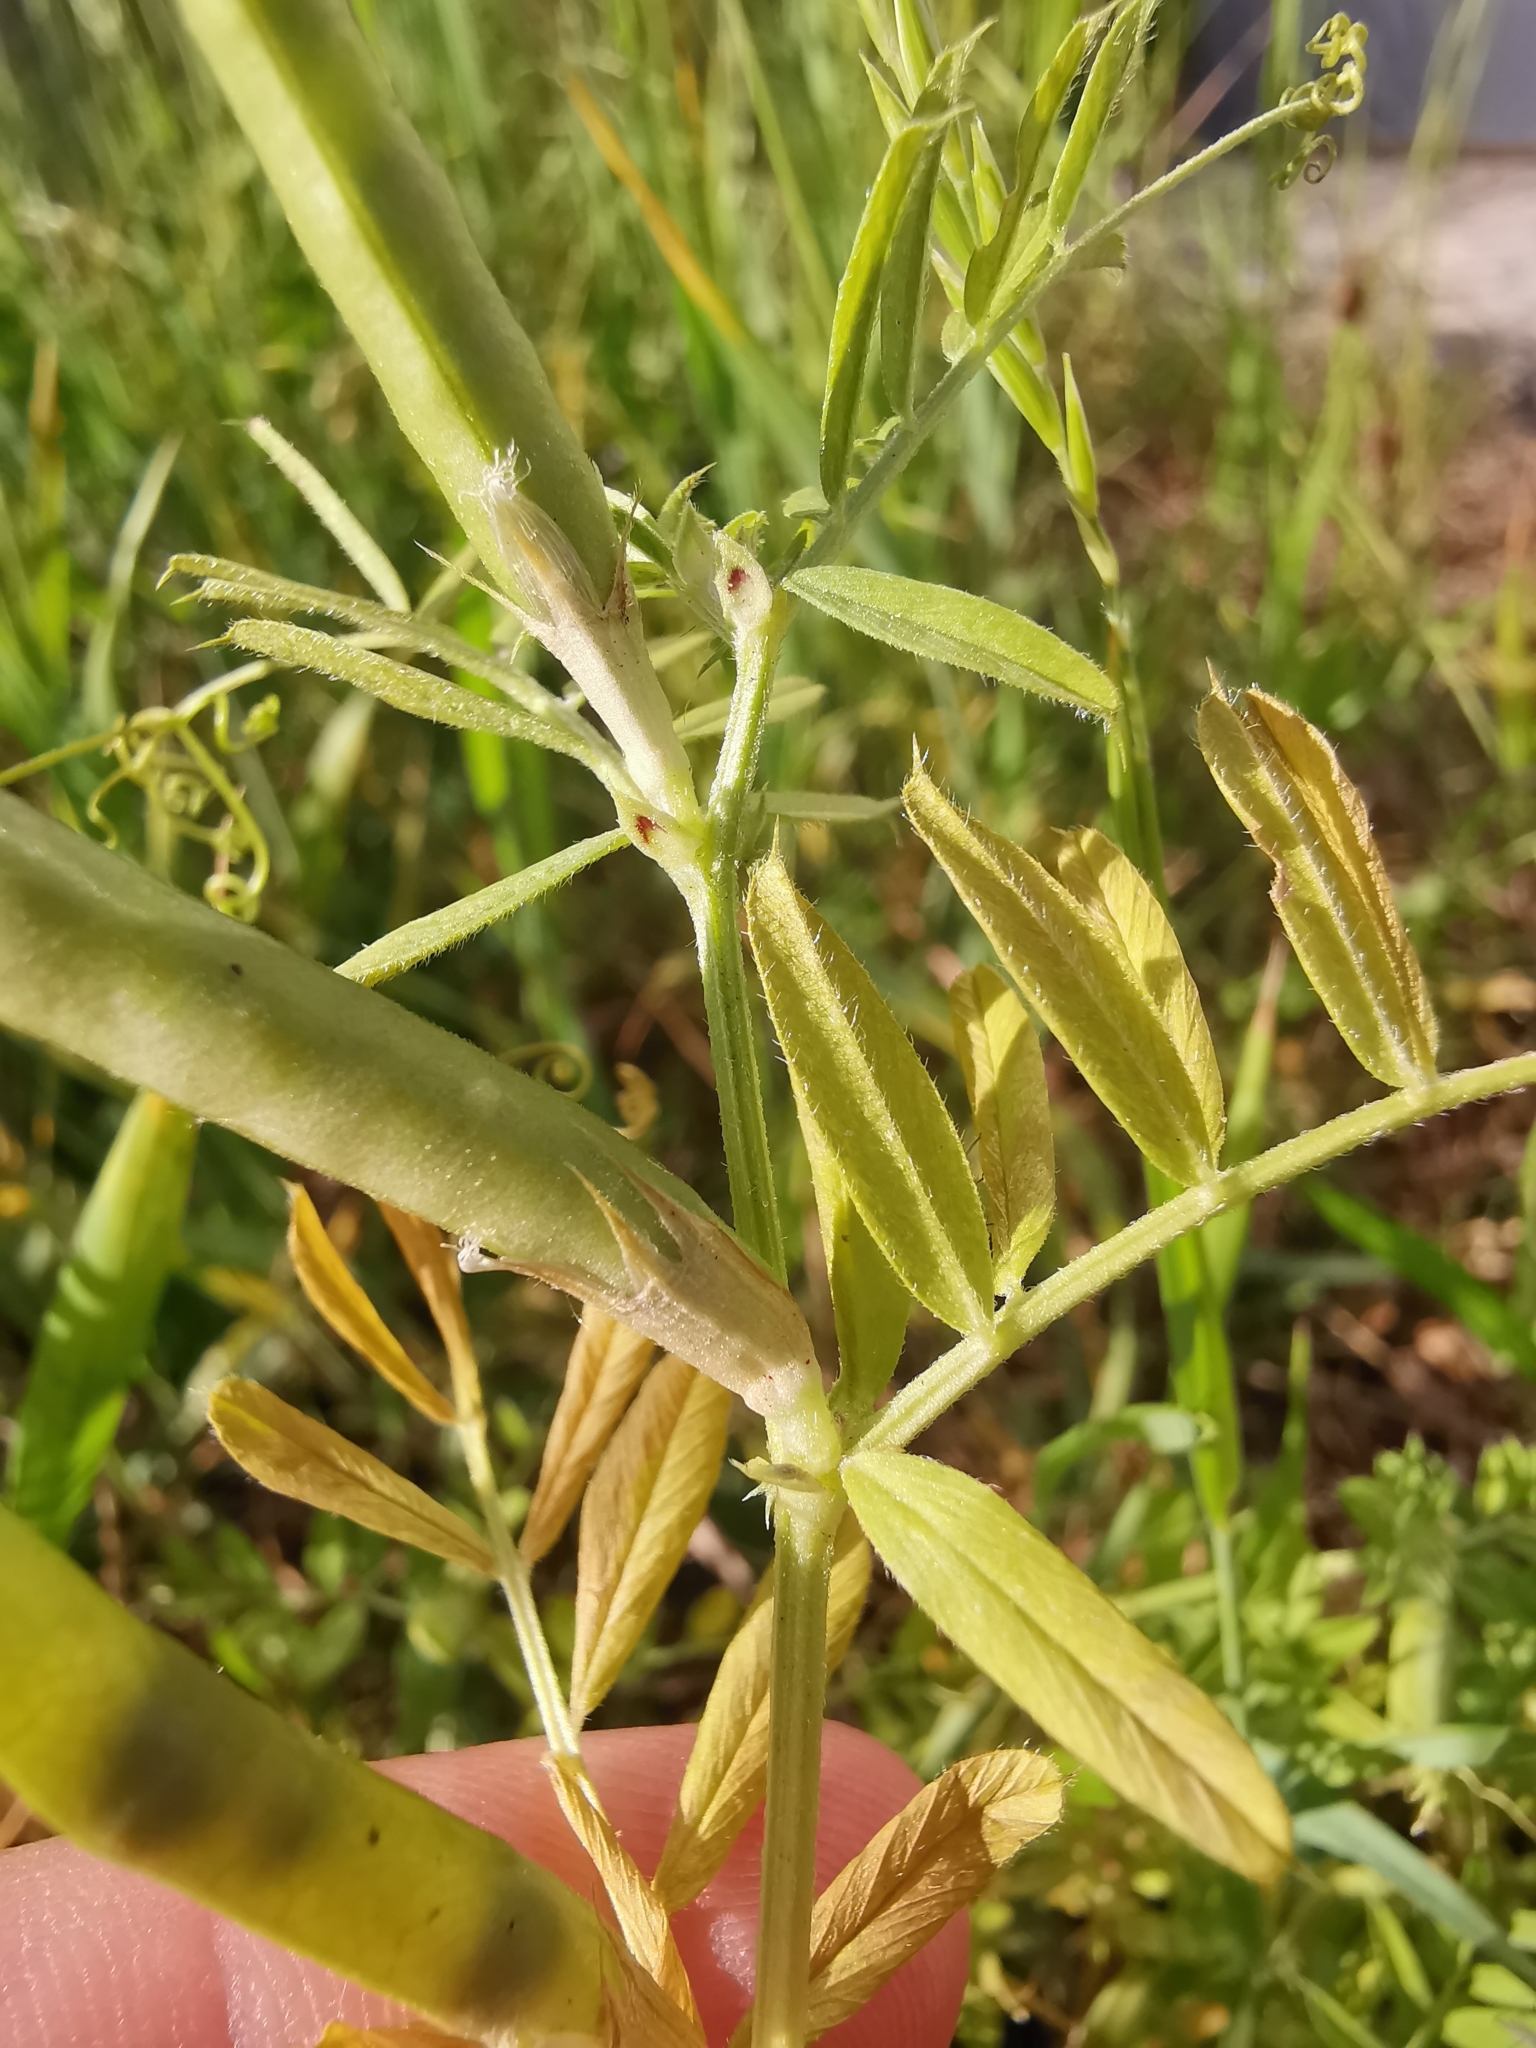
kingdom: Plantae
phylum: Tracheophyta
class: Magnoliopsida
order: Fabales
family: Fabaceae
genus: Vicia
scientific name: Vicia sativa
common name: Garden vetch
